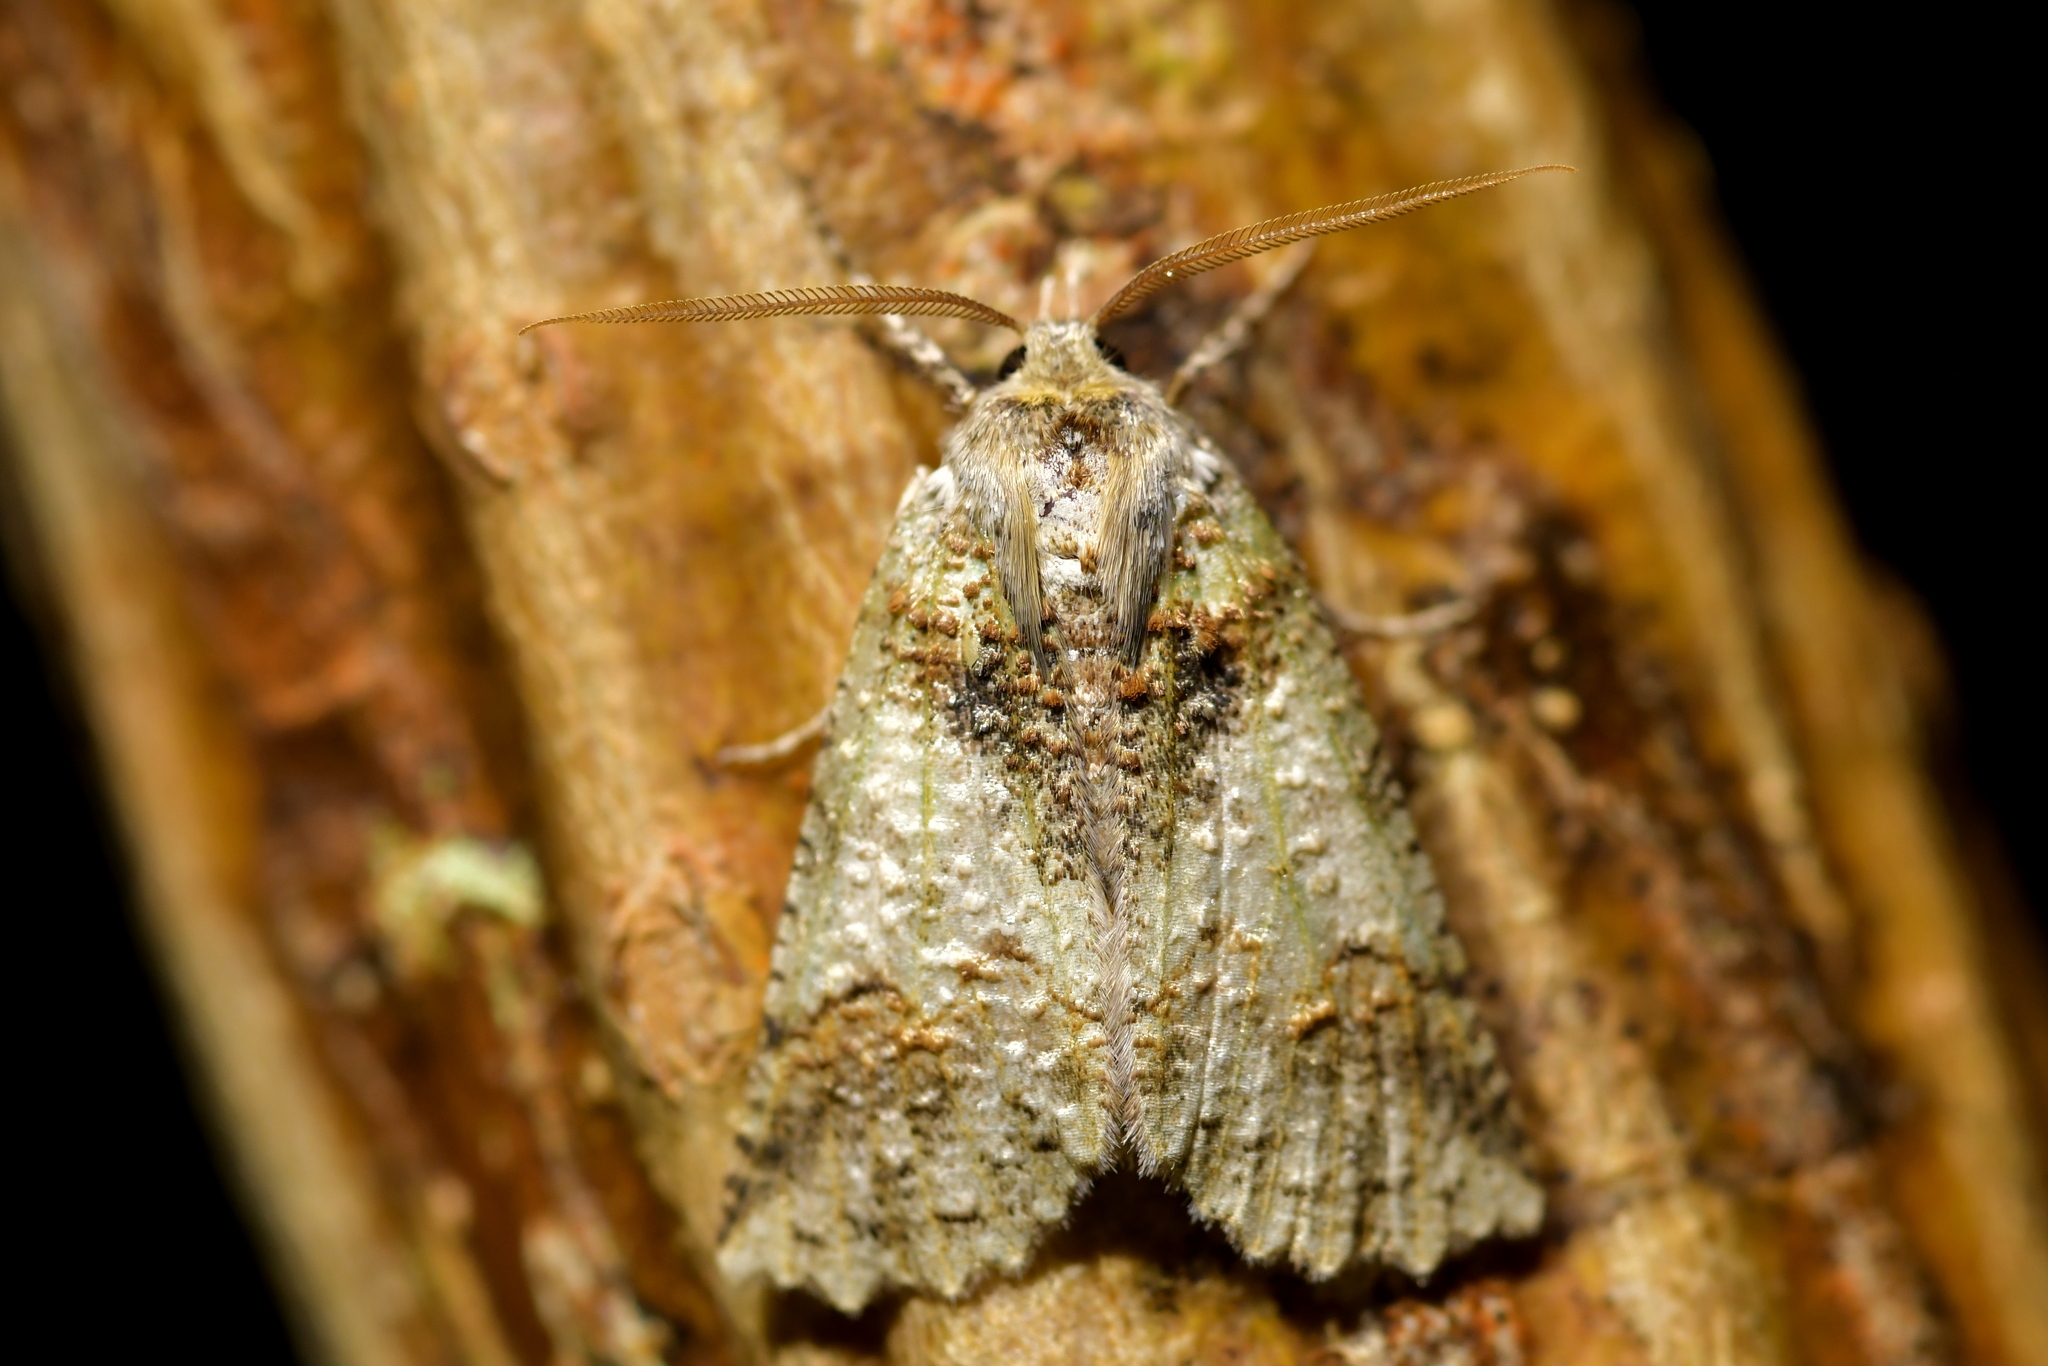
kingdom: Animalia
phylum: Arthropoda
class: Insecta
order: Lepidoptera
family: Geometridae
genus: Declana
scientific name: Declana floccosa
